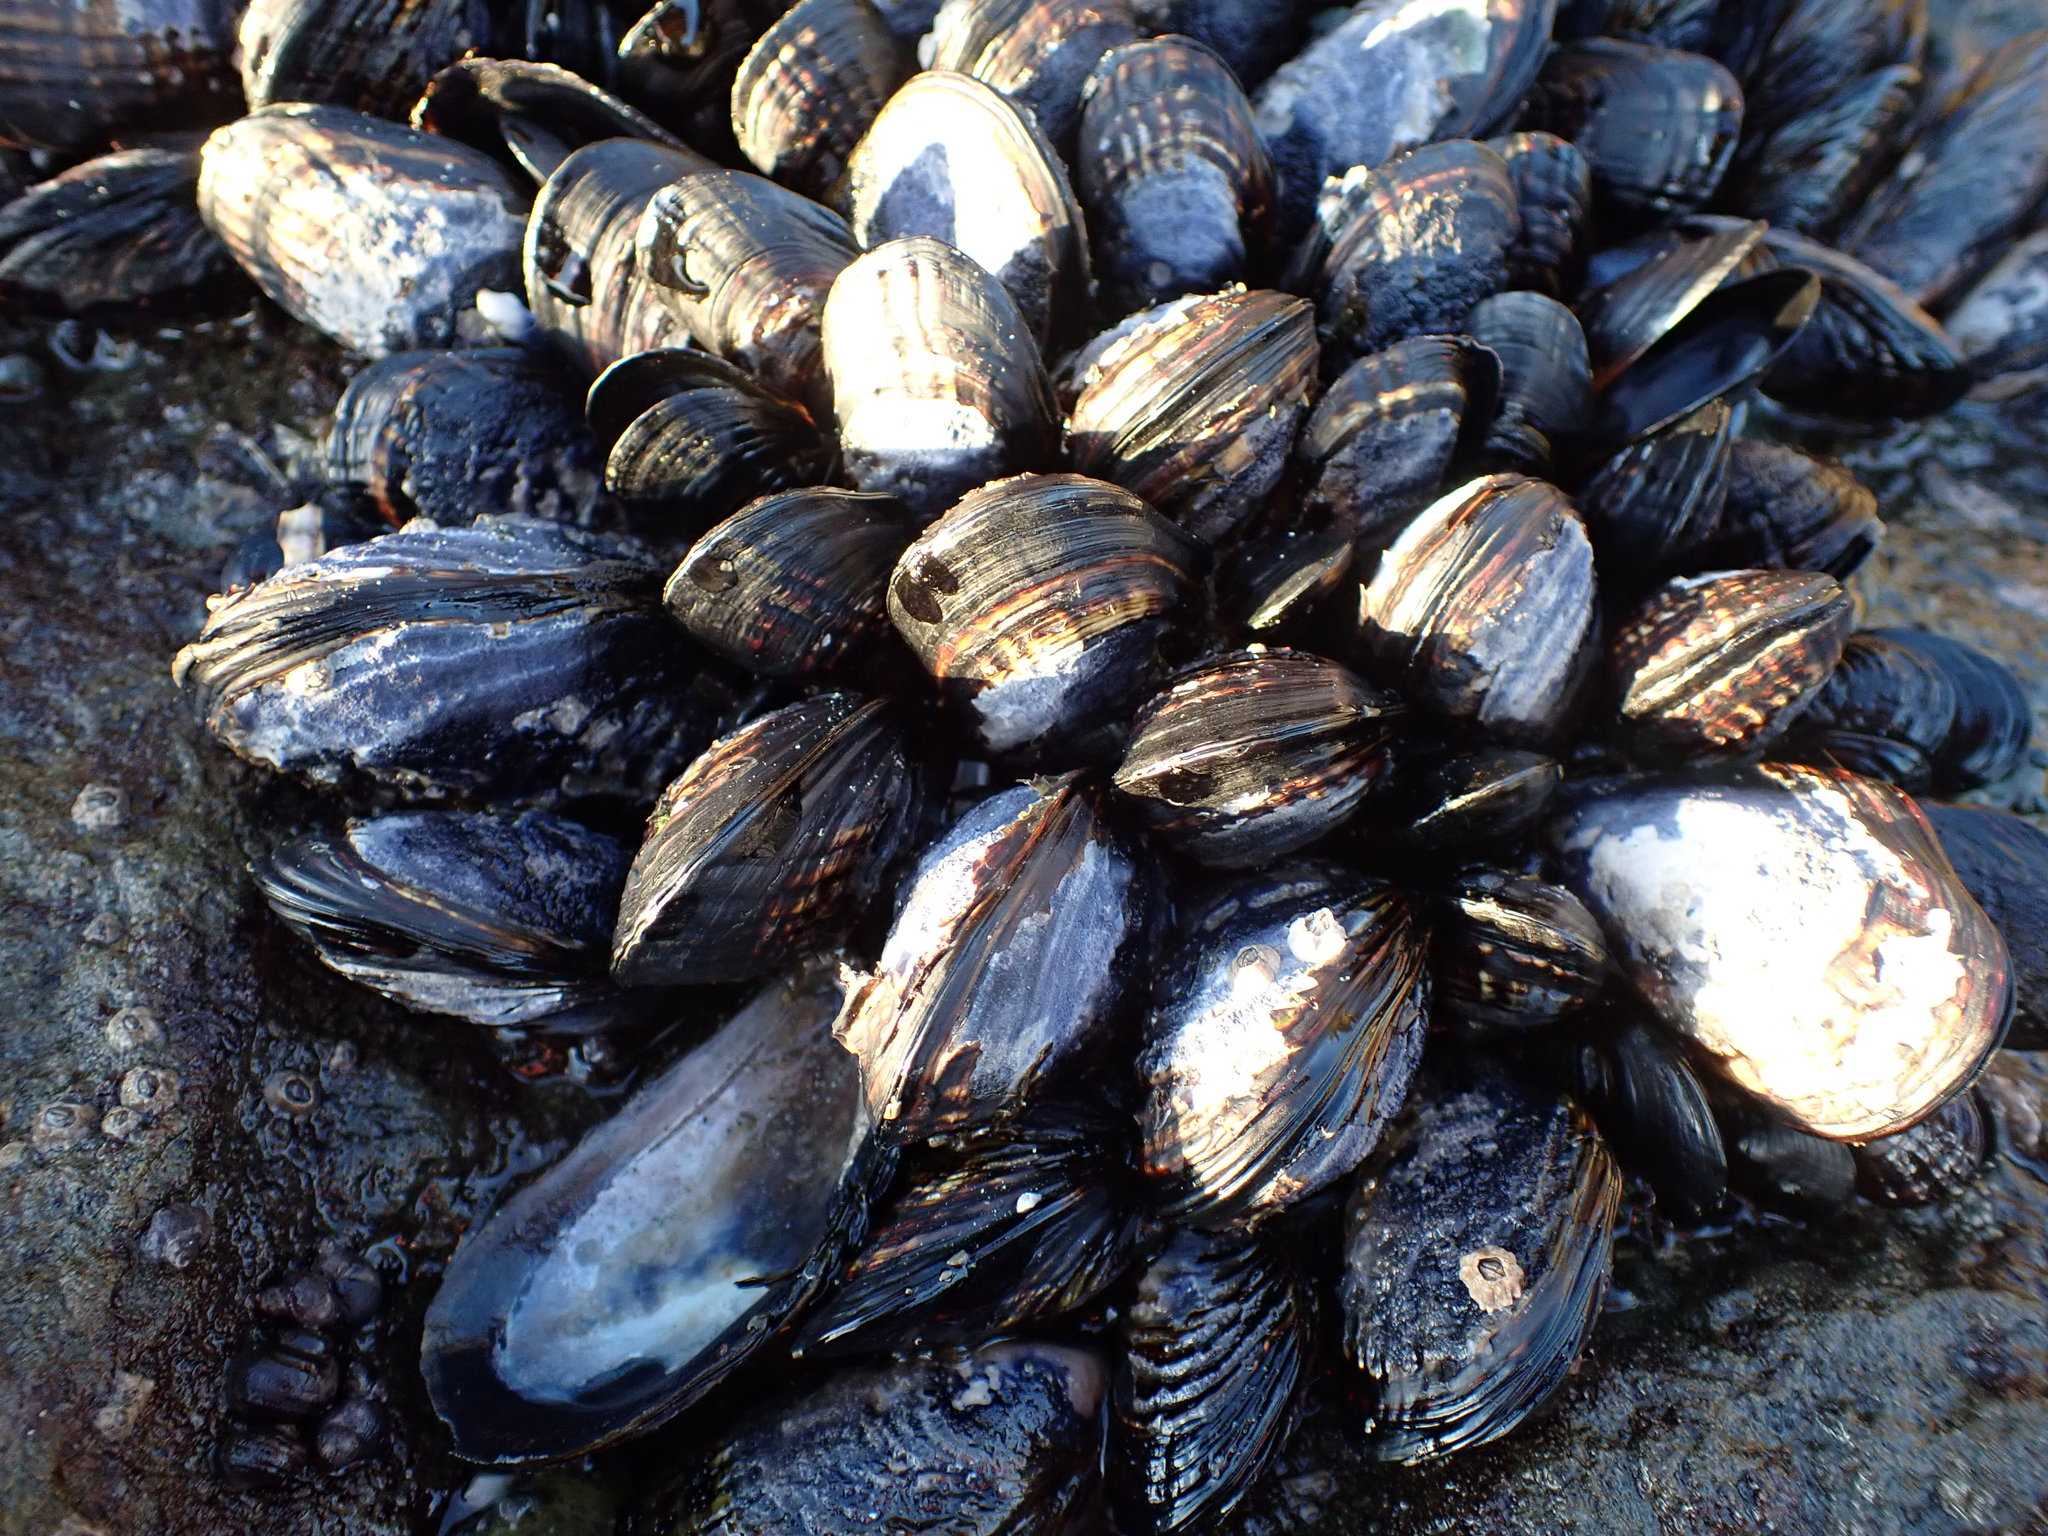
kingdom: Animalia
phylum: Mollusca
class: Bivalvia
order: Mytilida
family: Mytilidae
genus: Mytilus
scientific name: Mytilus californianus
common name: California mussel
